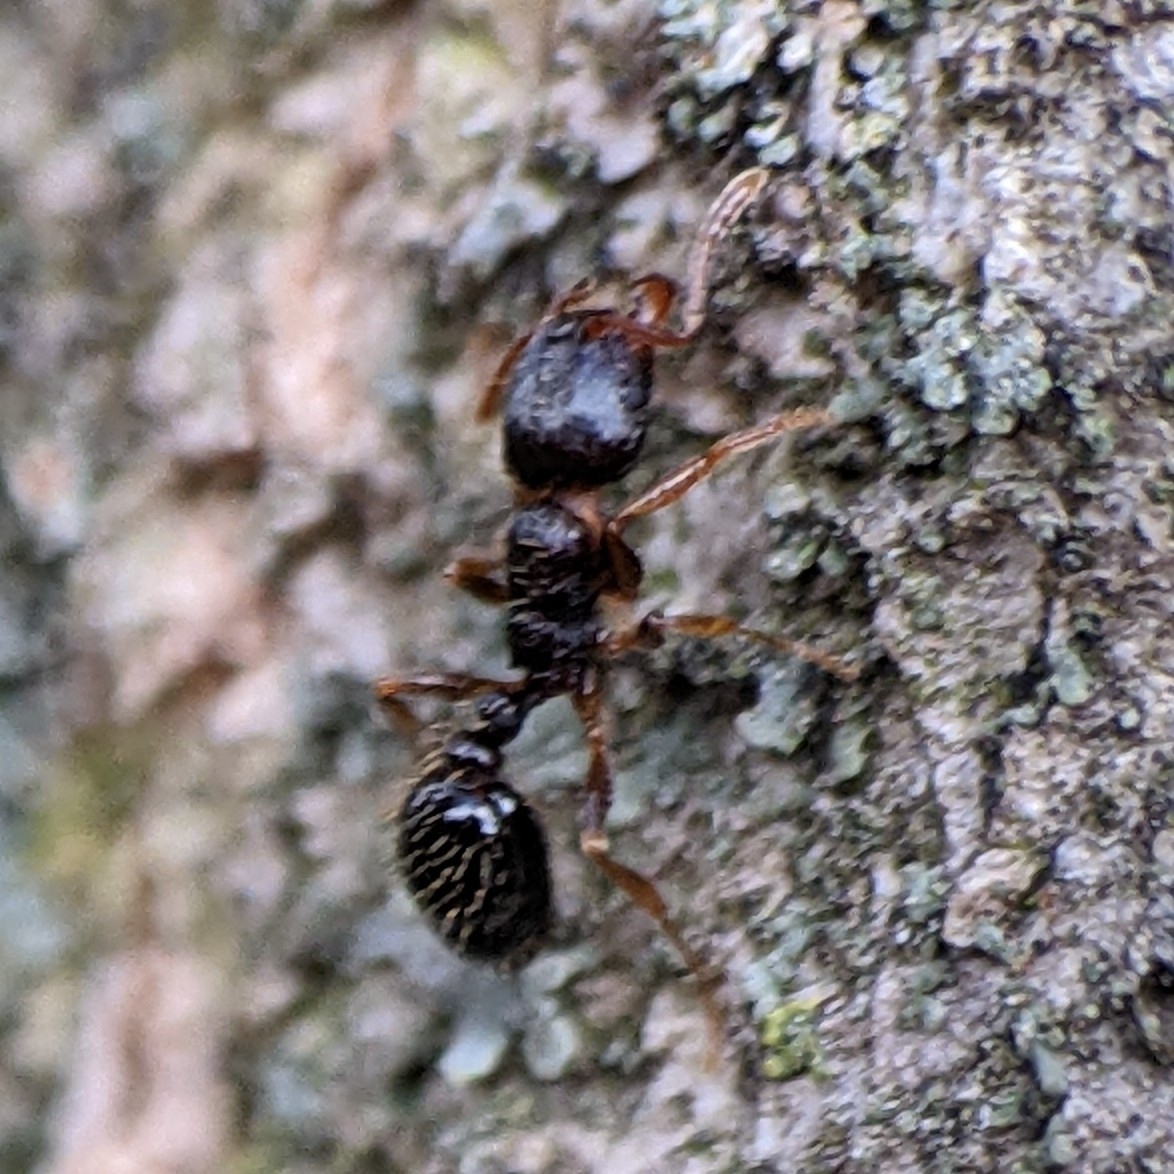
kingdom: Animalia
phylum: Arthropoda
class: Insecta
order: Hymenoptera
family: Formicidae
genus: Tetramorium
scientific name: Tetramorium immigrans
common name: Pavement ant
